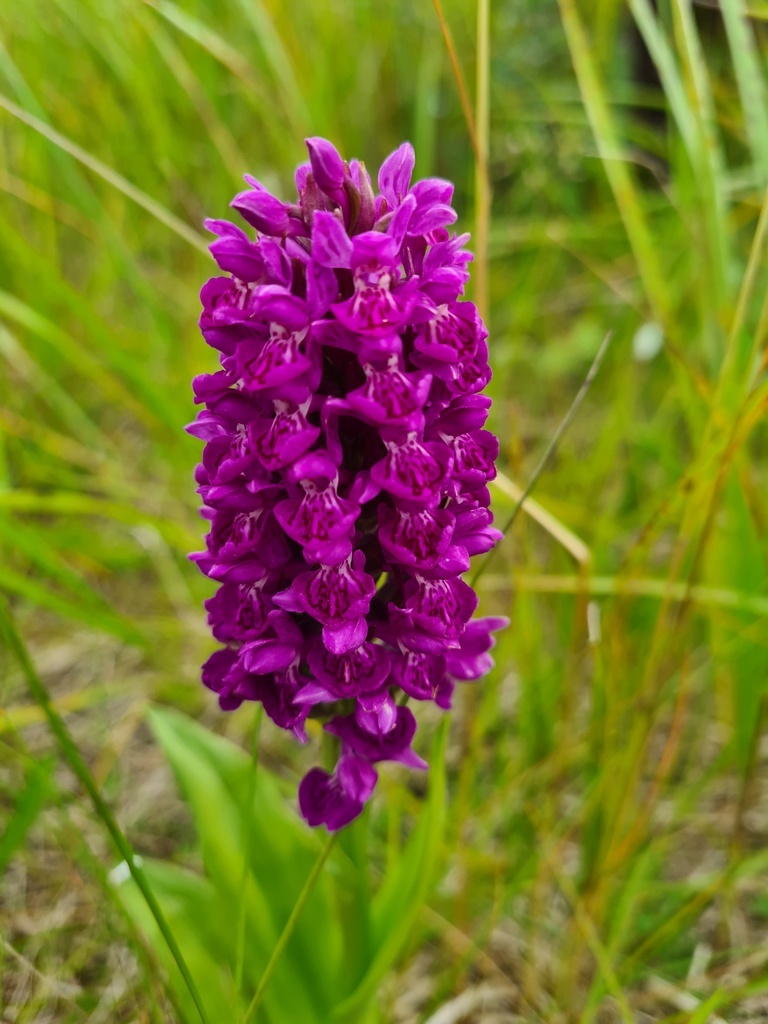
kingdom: Plantae
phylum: Tracheophyta
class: Liliopsida
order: Asparagales
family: Orchidaceae
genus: Dactylorhiza
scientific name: Dactylorhiza majalis
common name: Marsh orchid
